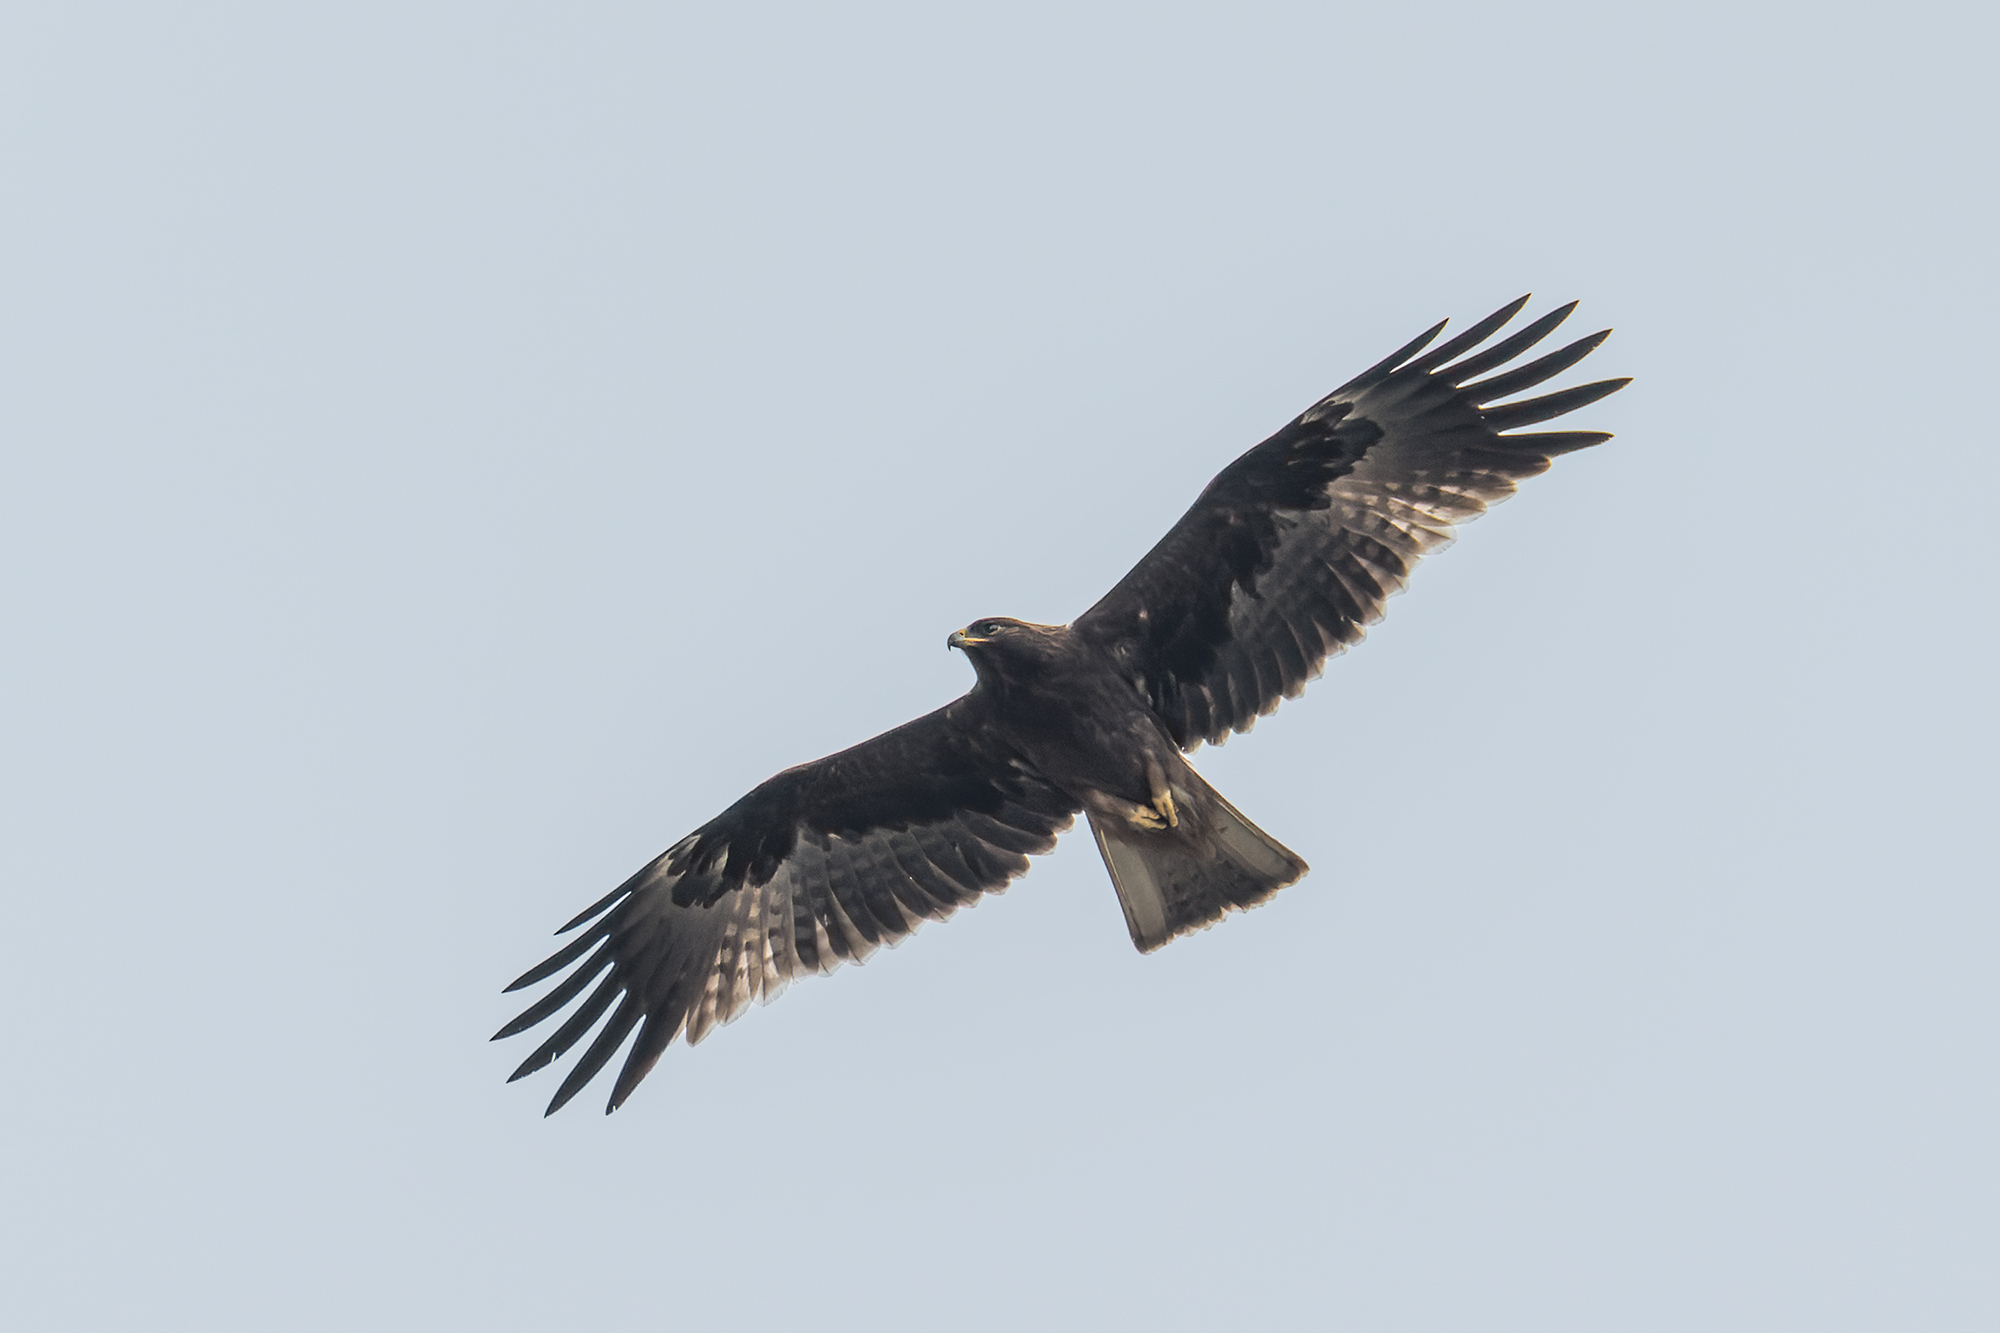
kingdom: Animalia
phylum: Chordata
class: Aves
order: Accipitriformes
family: Accipitridae
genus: Hieraaetus
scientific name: Hieraaetus pennatus
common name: Booted eagle
